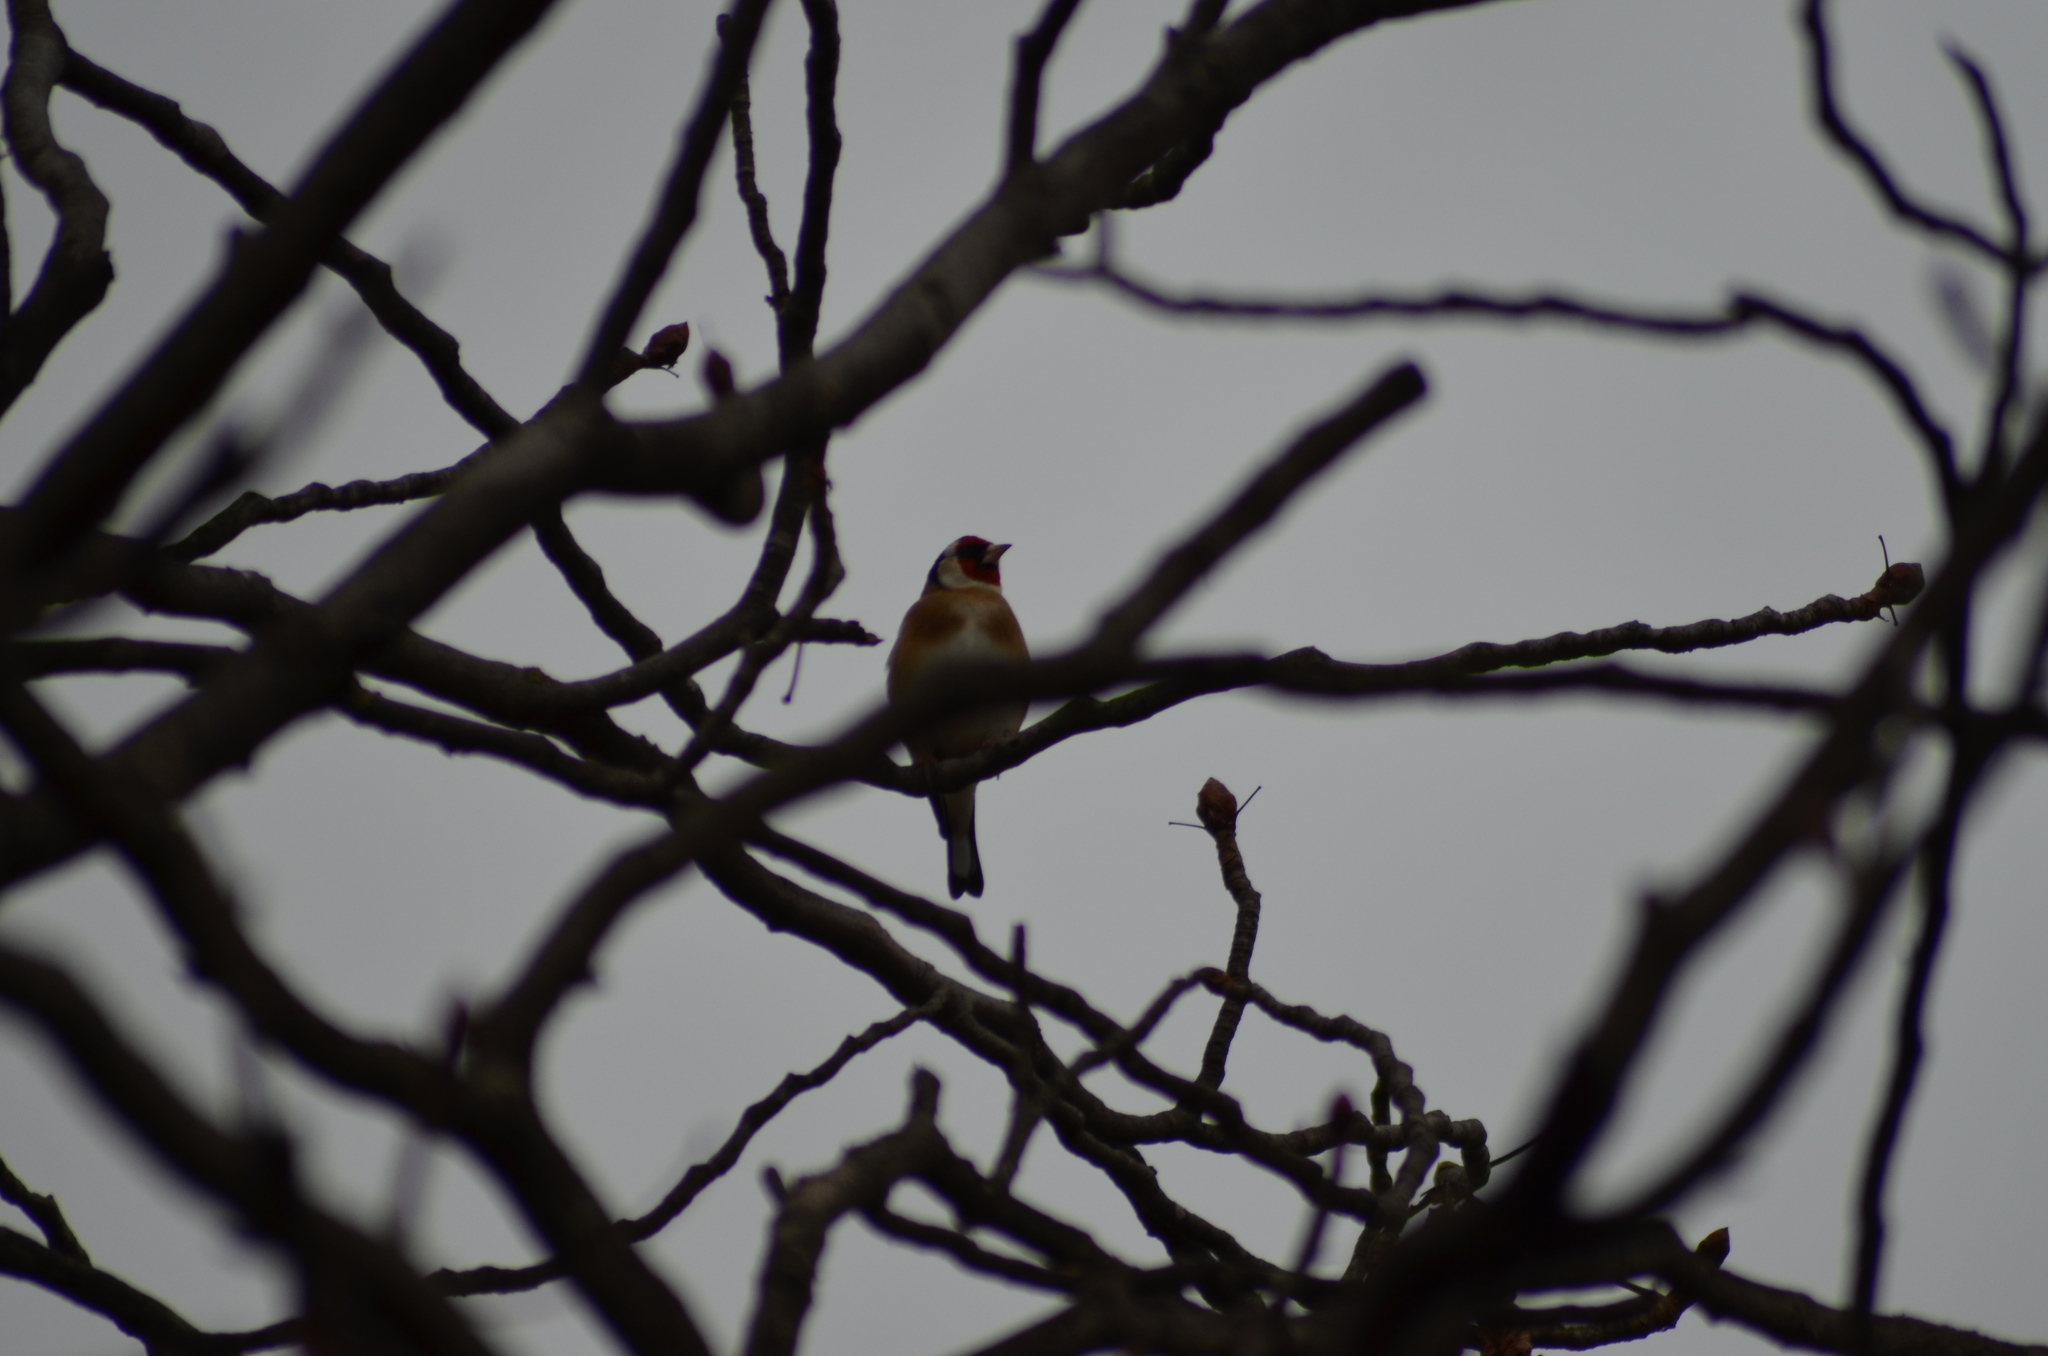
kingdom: Animalia
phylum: Chordata
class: Aves
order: Passeriformes
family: Fringillidae
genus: Carduelis
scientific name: Carduelis carduelis
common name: European goldfinch
